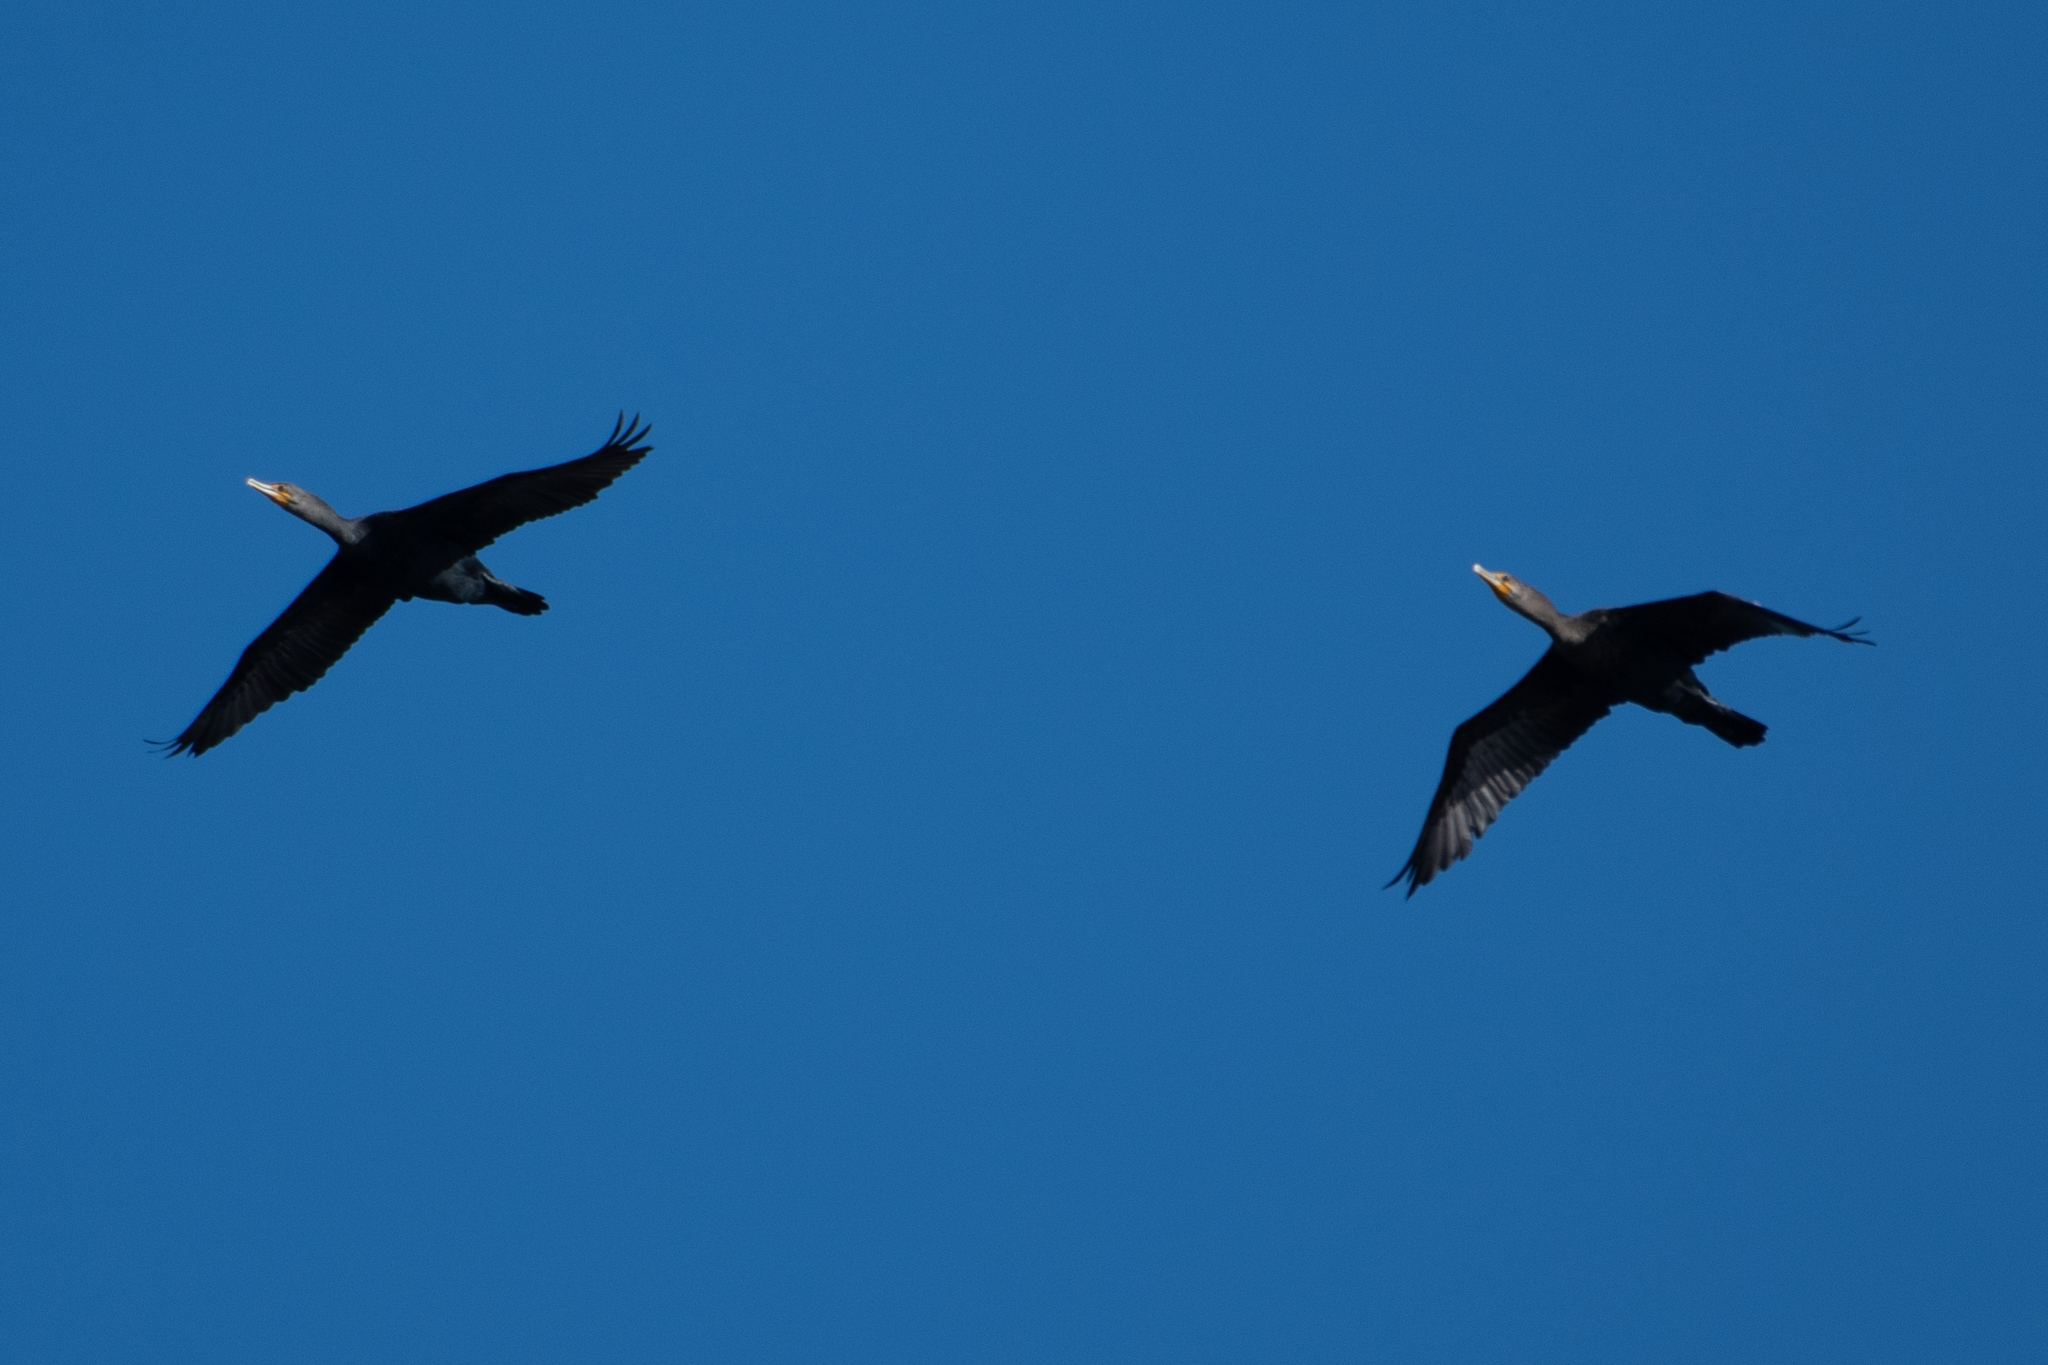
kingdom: Animalia
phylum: Chordata
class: Aves
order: Suliformes
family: Phalacrocoracidae
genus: Phalacrocorax
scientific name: Phalacrocorax auritus
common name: Double-crested cormorant
